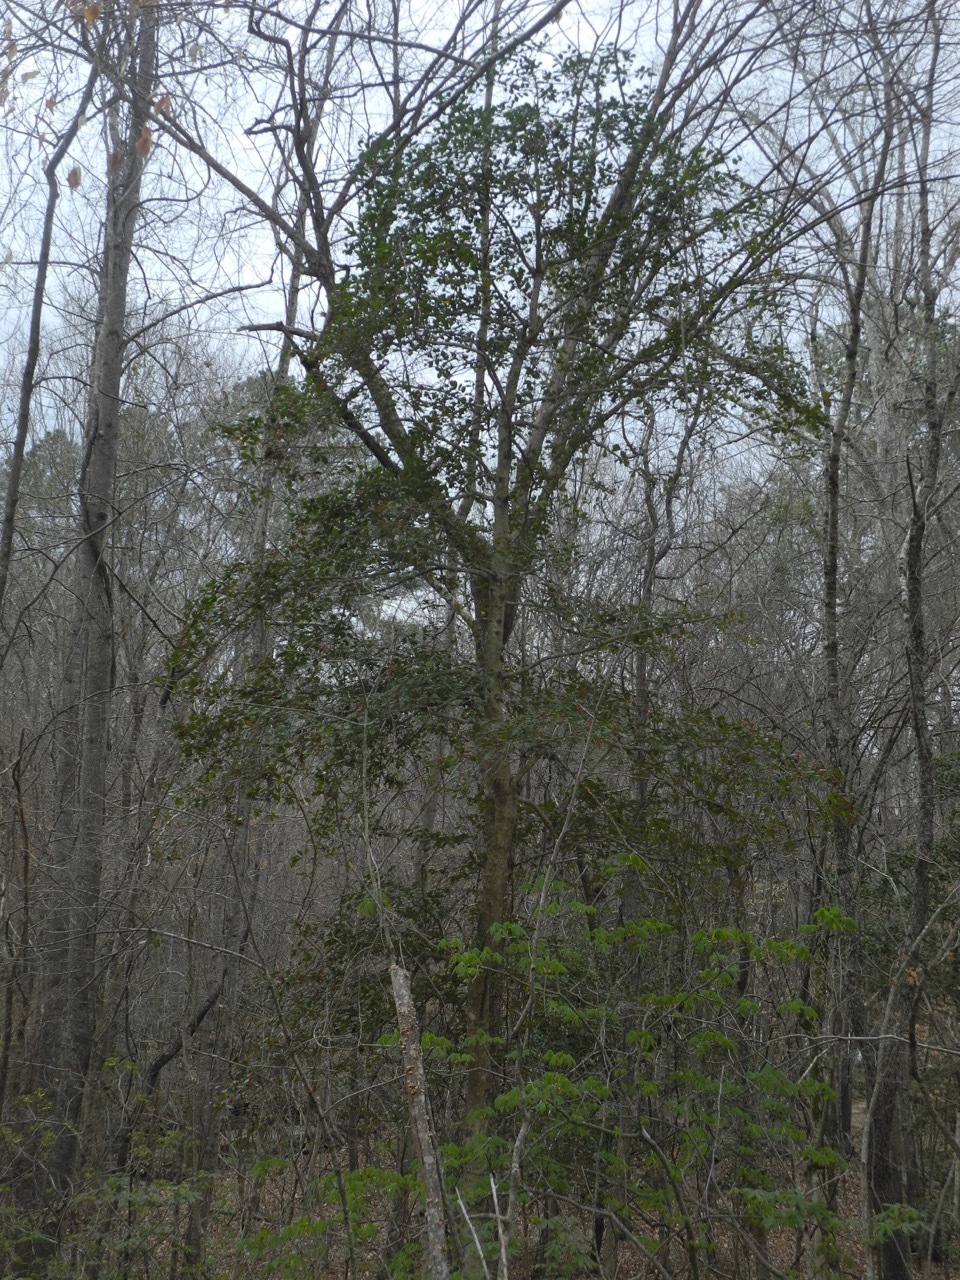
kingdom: Plantae
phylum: Tracheophyta
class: Magnoliopsida
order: Aquifoliales
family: Aquifoliaceae
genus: Ilex
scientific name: Ilex opaca
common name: American holly
